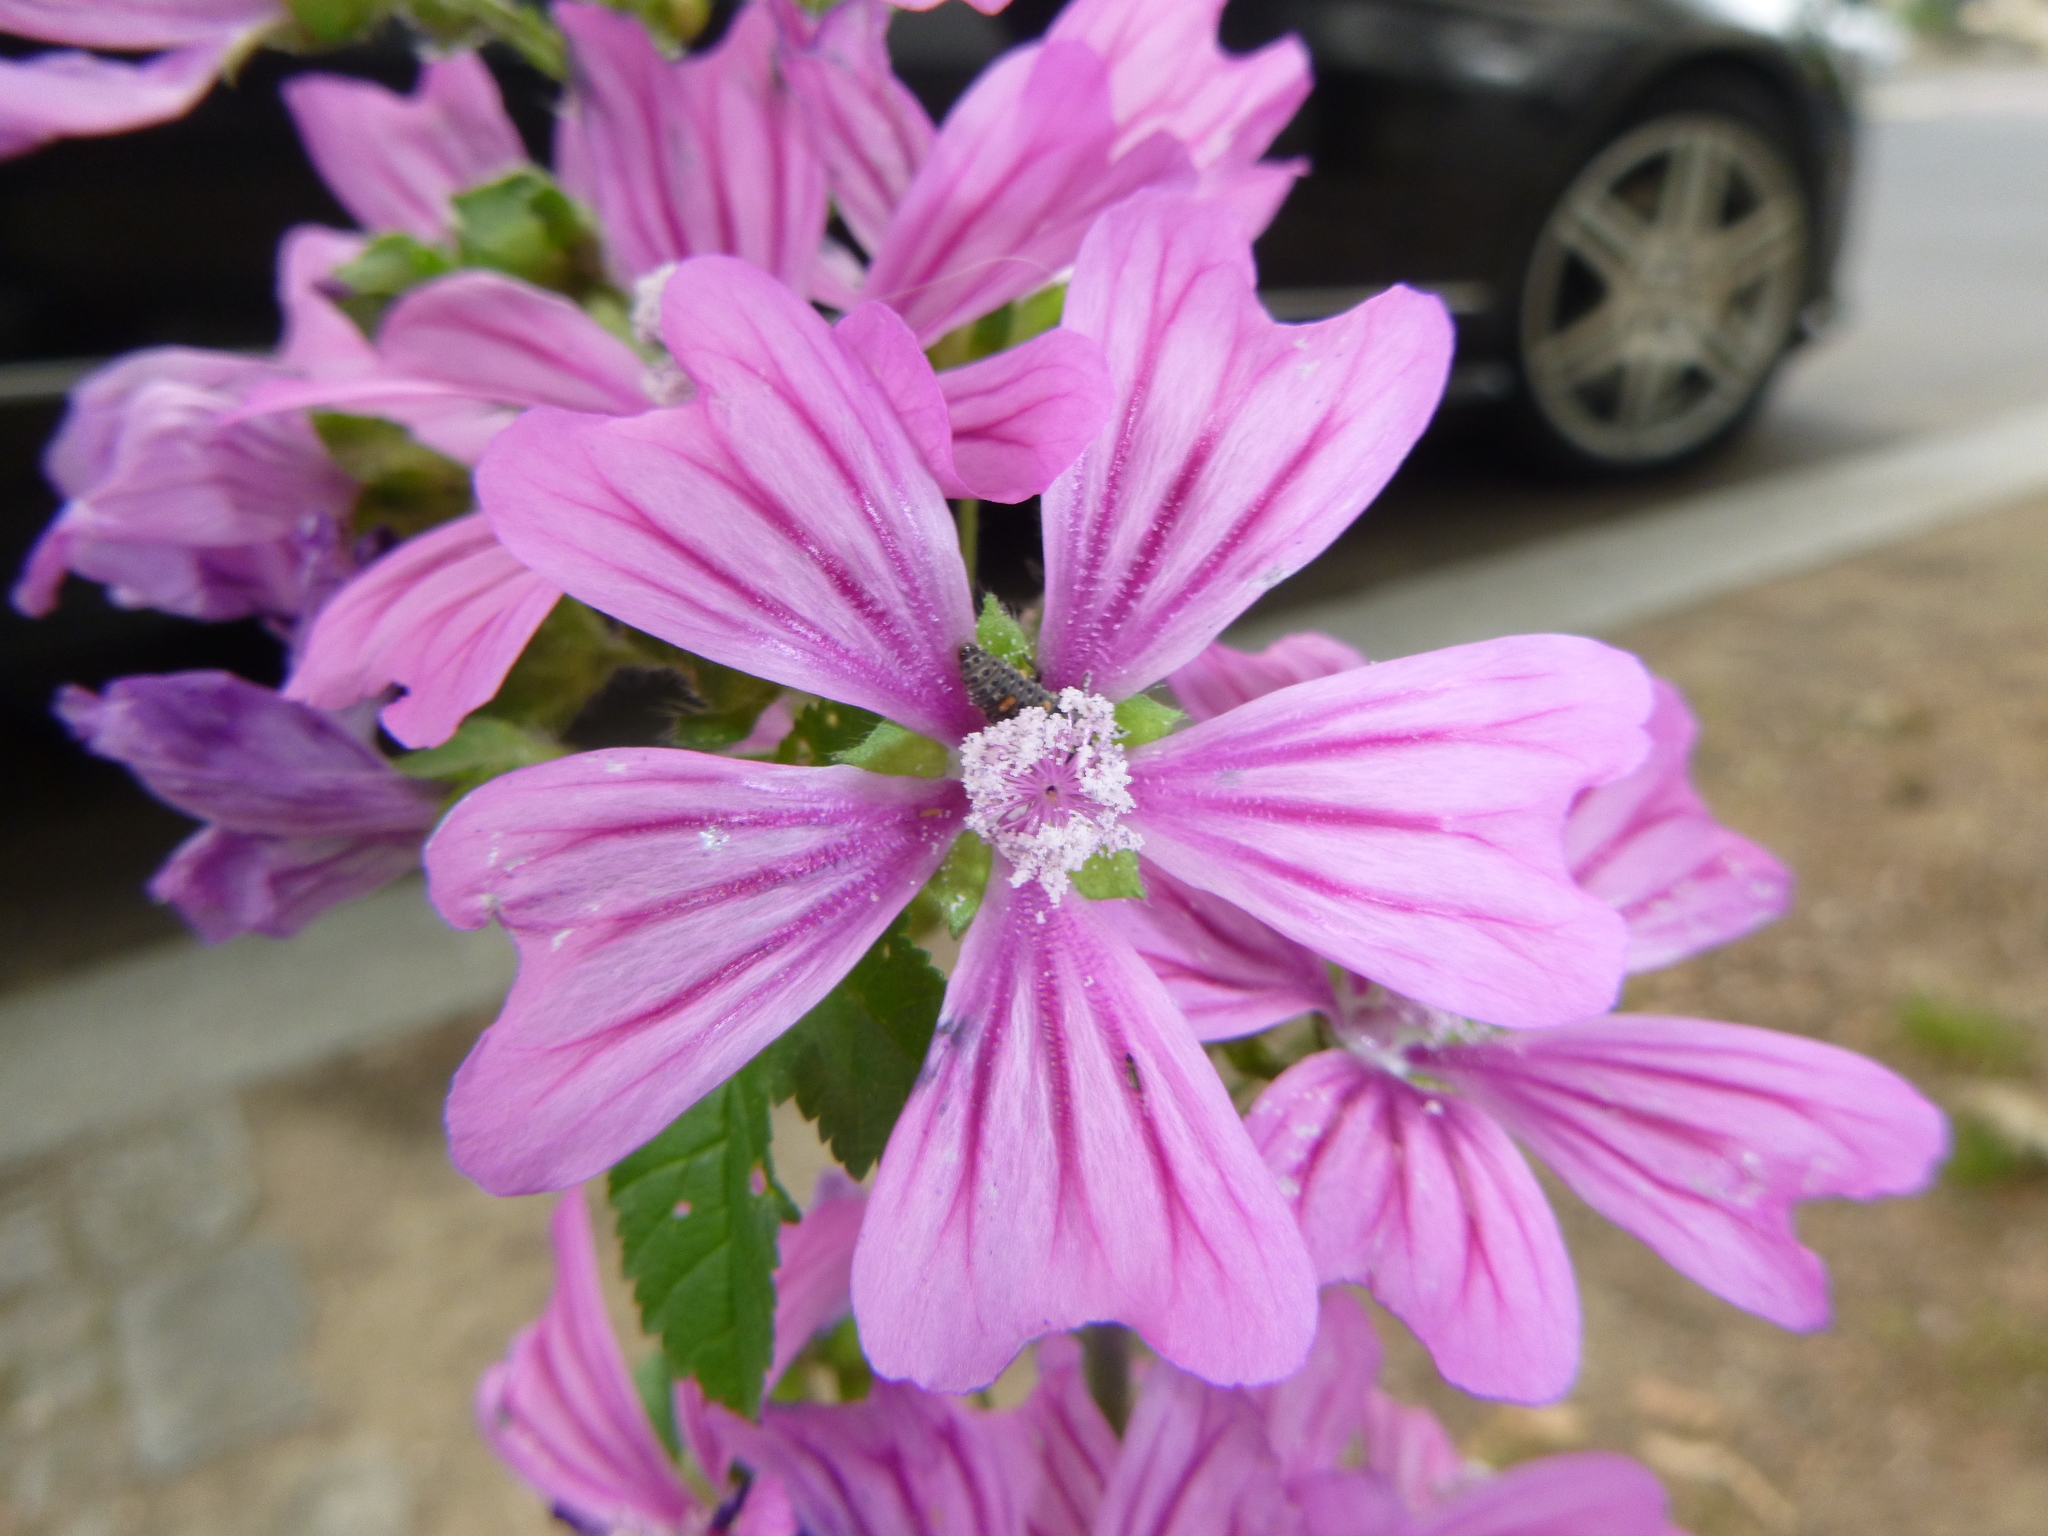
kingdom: Plantae
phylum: Tracheophyta
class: Magnoliopsida
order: Malvales
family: Malvaceae
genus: Malva
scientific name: Malva sylvestris
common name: Common mallow
